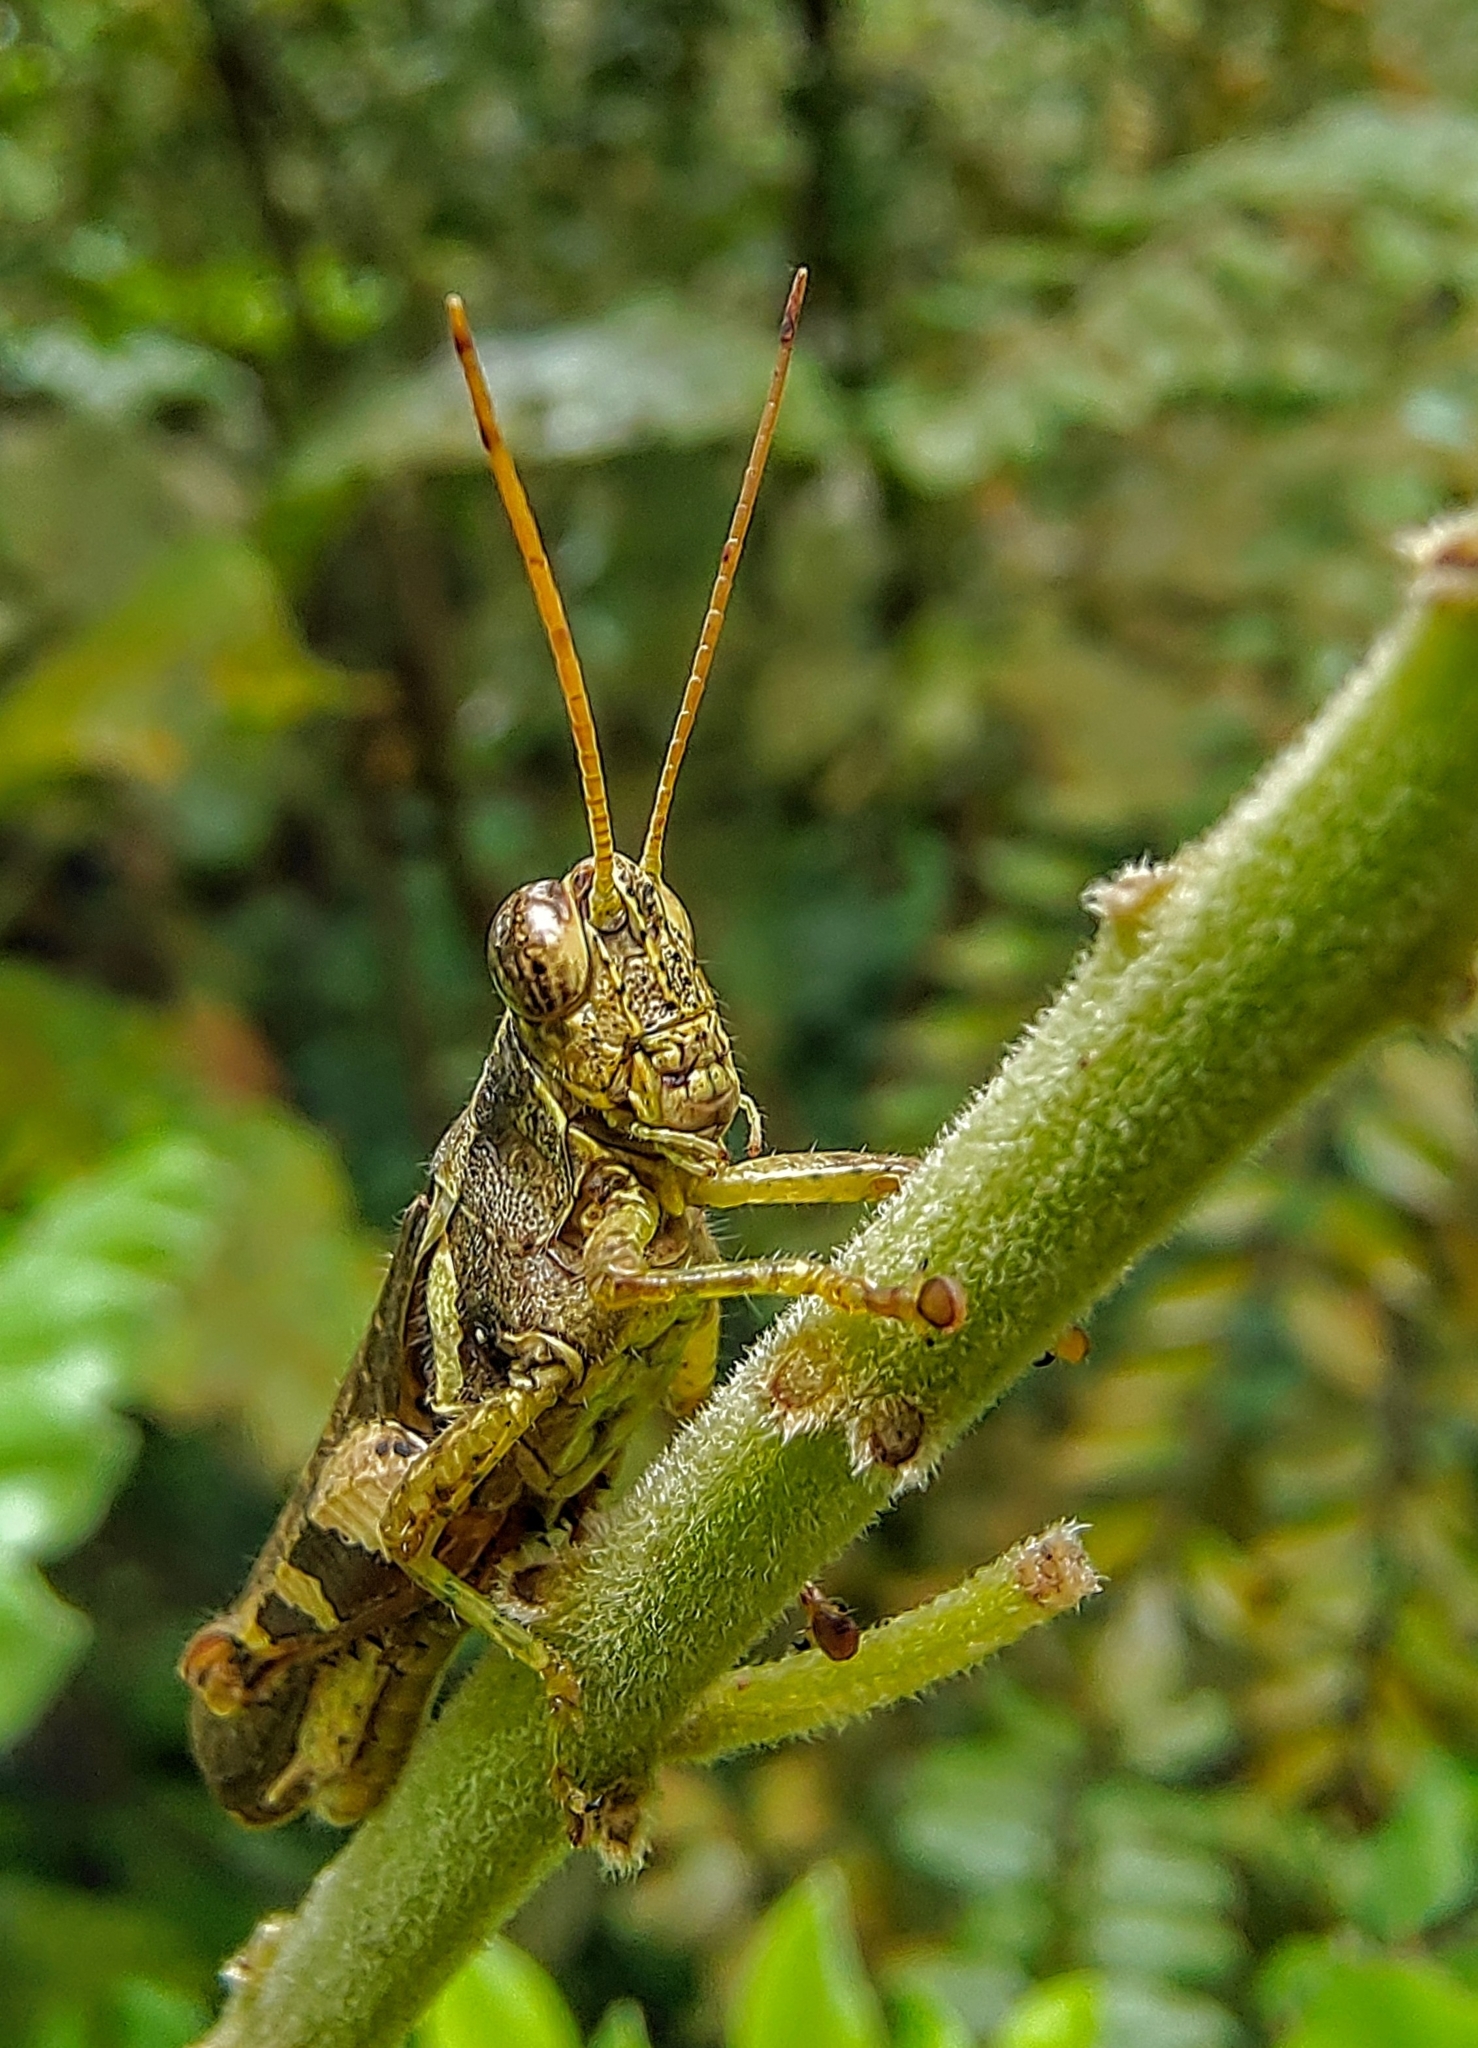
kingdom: Animalia
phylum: Arthropoda
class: Insecta
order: Orthoptera
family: Acrididae
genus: Xenocatantops
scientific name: Xenocatantops humile
